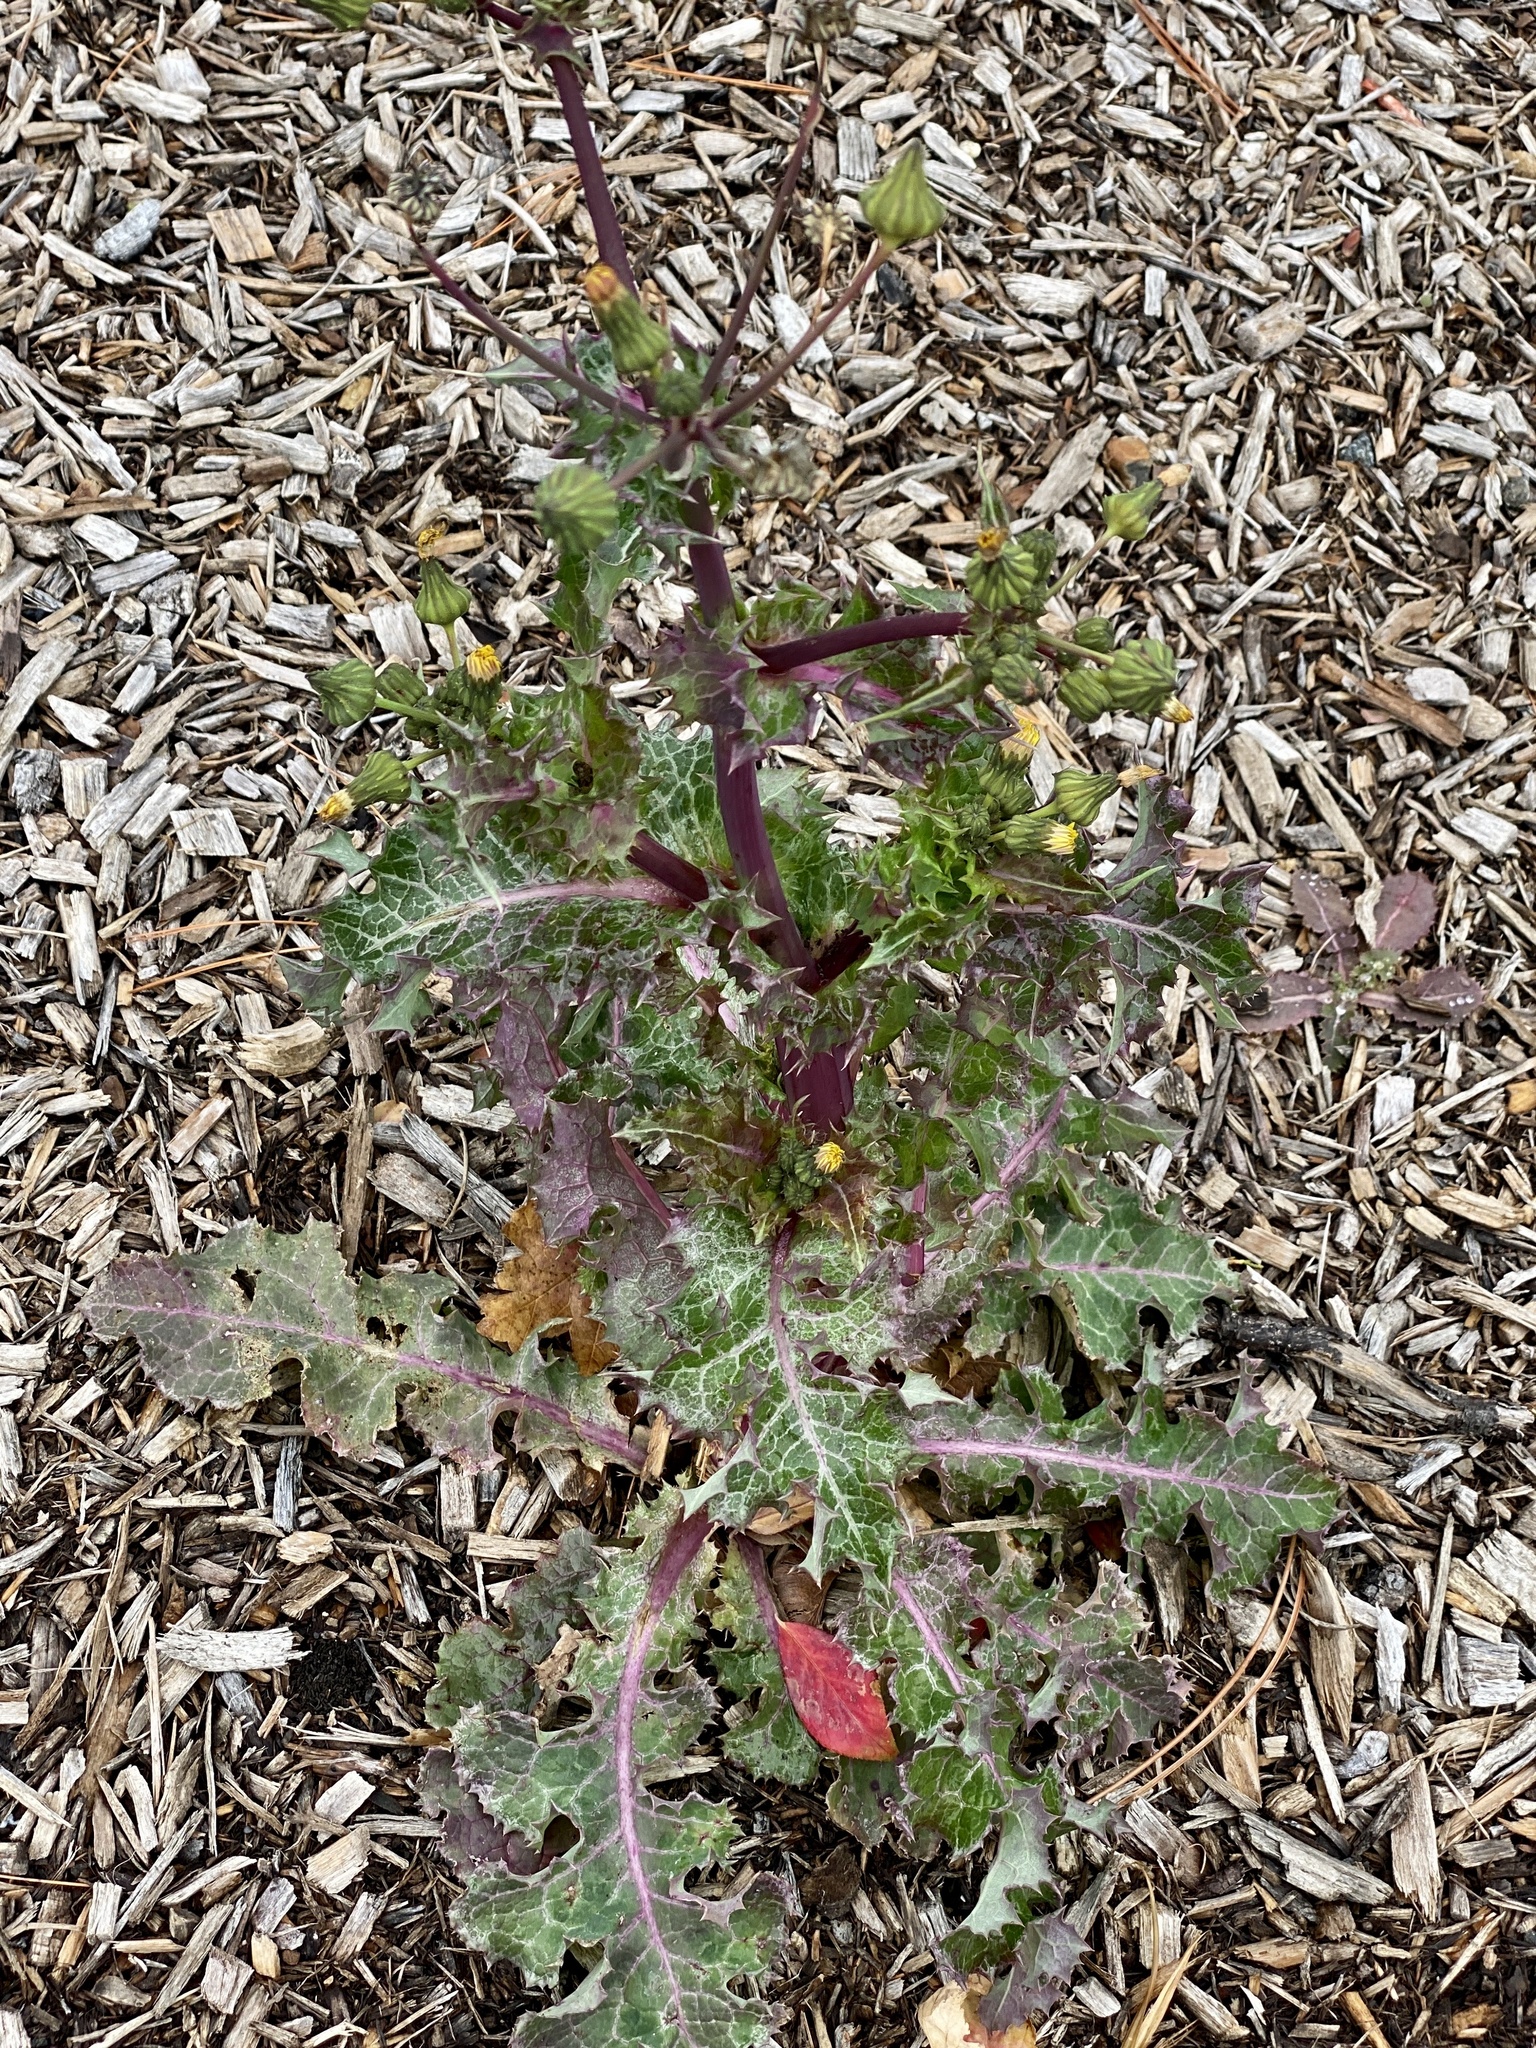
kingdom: Plantae
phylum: Tracheophyta
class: Magnoliopsida
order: Asterales
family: Asteraceae
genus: Sonchus
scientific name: Sonchus asper
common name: Prickly sow-thistle
